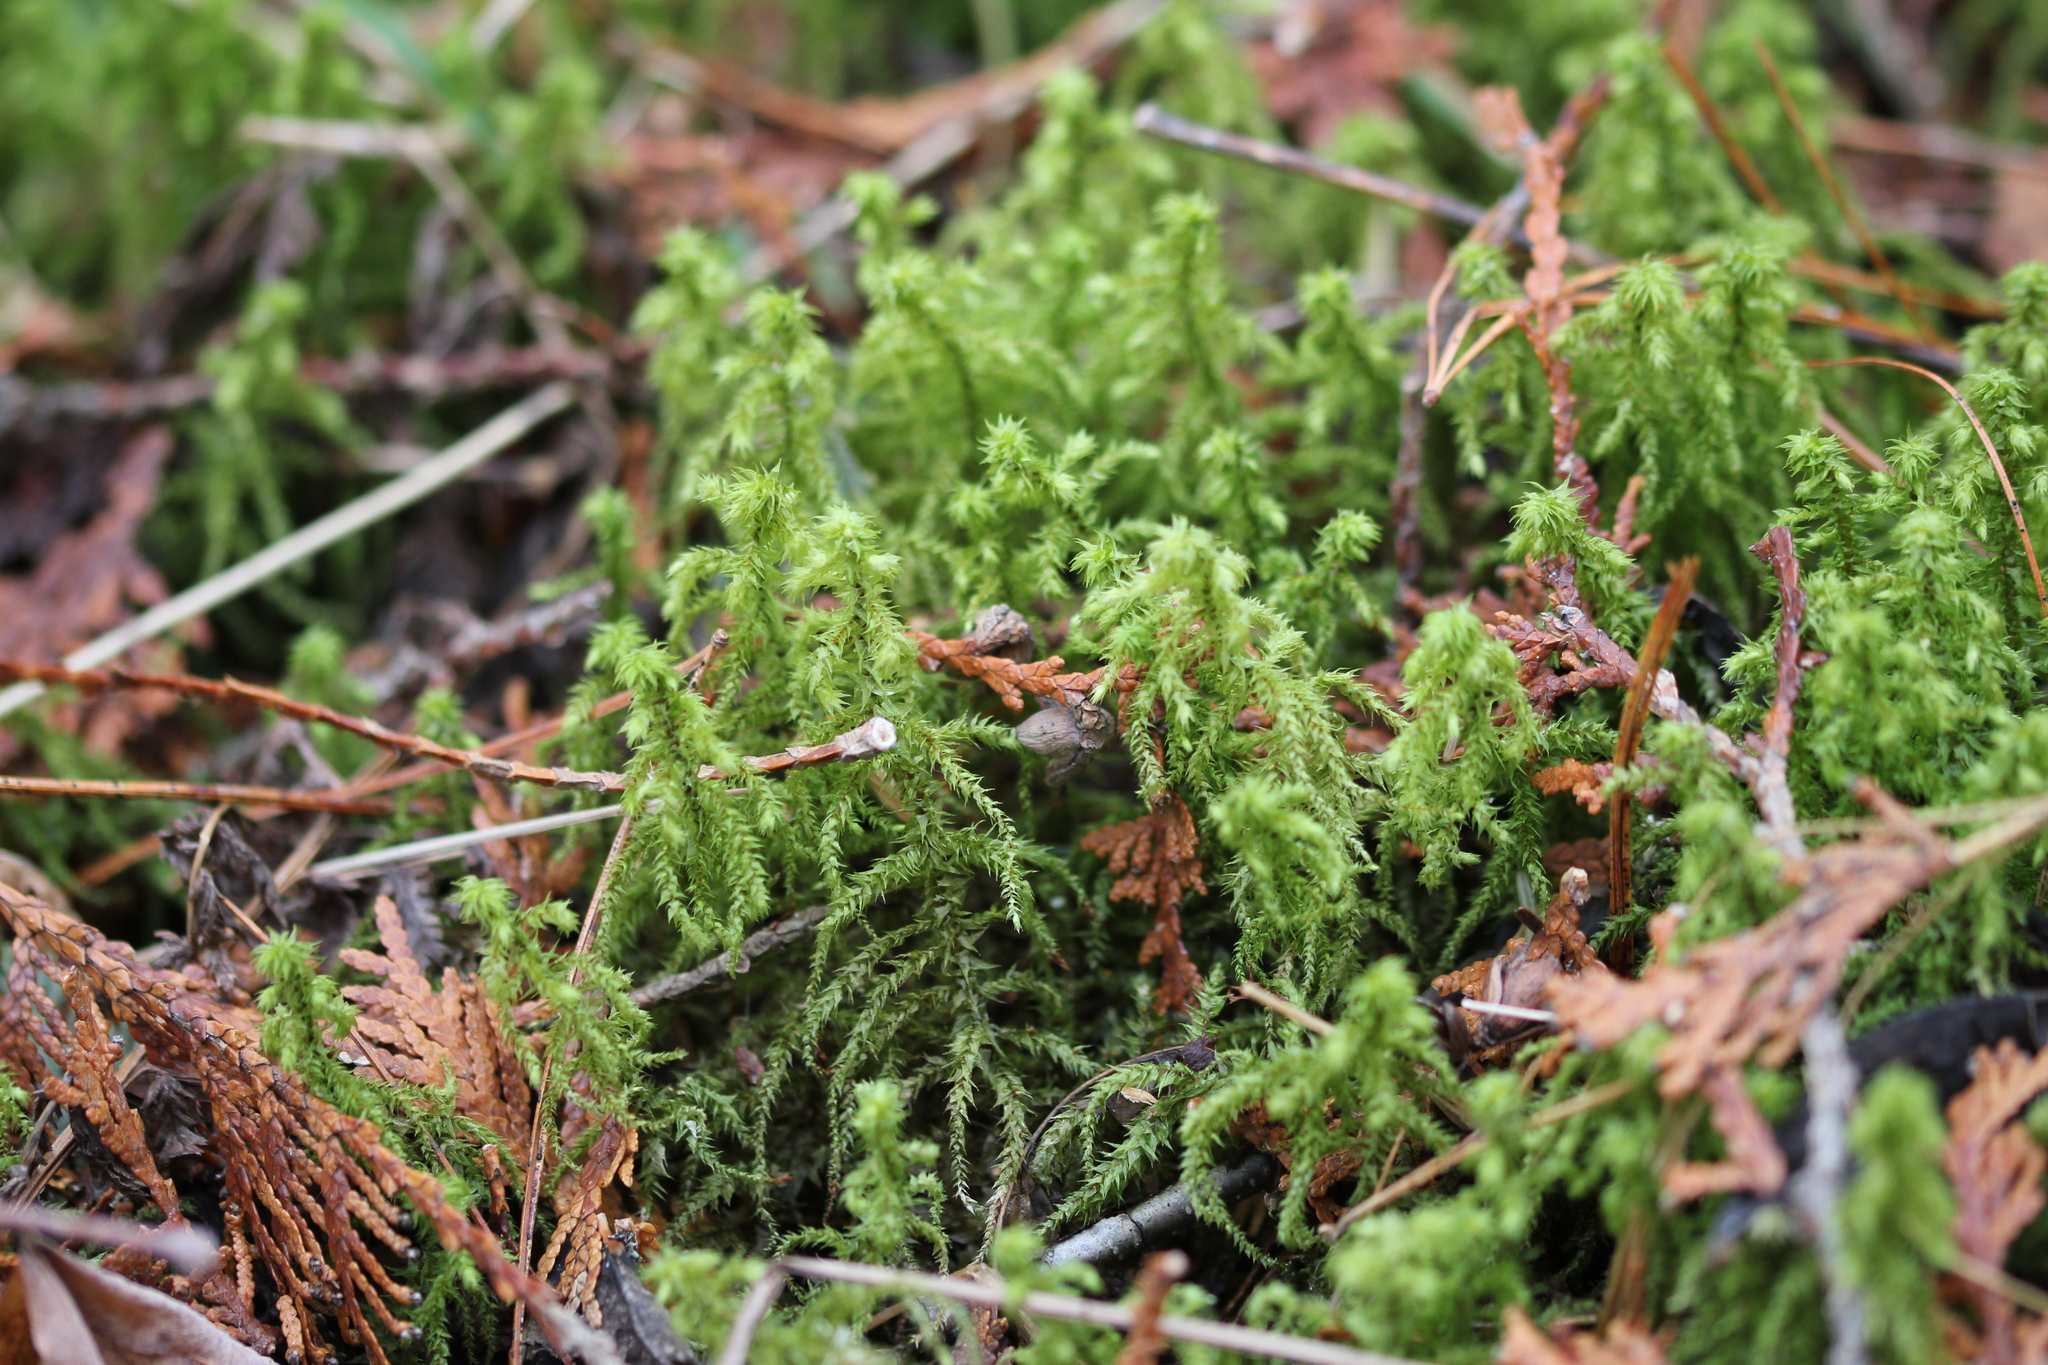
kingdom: Plantae
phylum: Bryophyta
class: Bryopsida
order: Hypnales
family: Hylocomiaceae
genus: Hylocomiadelphus
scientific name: Hylocomiadelphus triquetrus
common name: Rough goose neck moss
